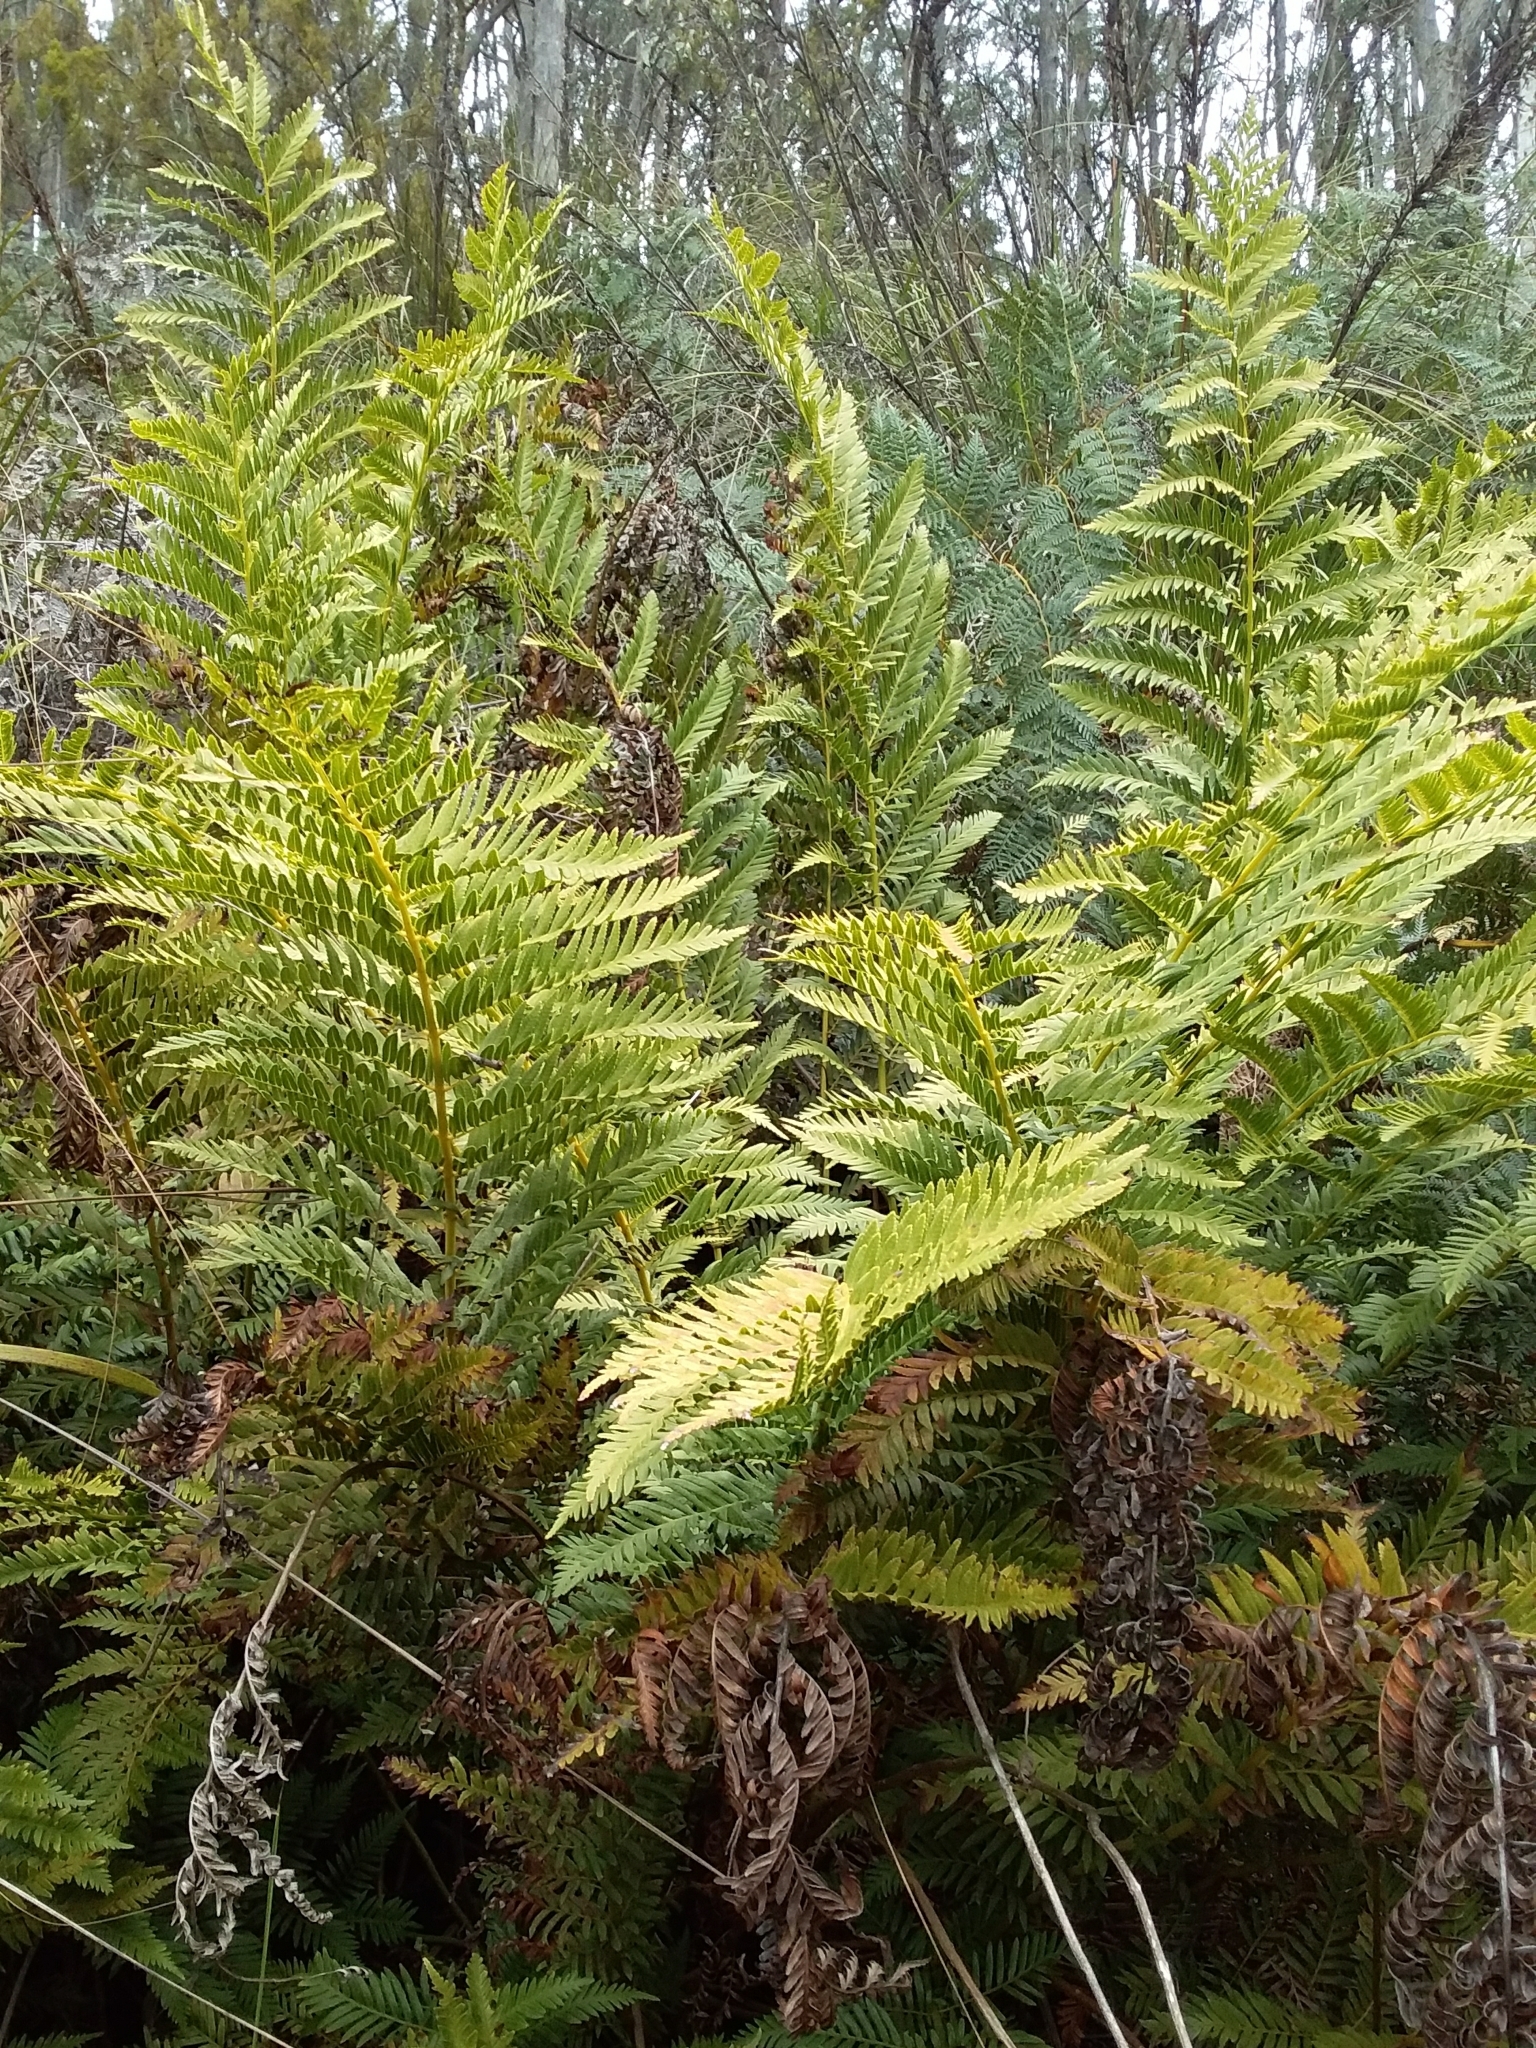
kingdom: Plantae
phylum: Tracheophyta
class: Polypodiopsida
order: Osmundales
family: Osmundaceae
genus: Todea
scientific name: Todea barbara
